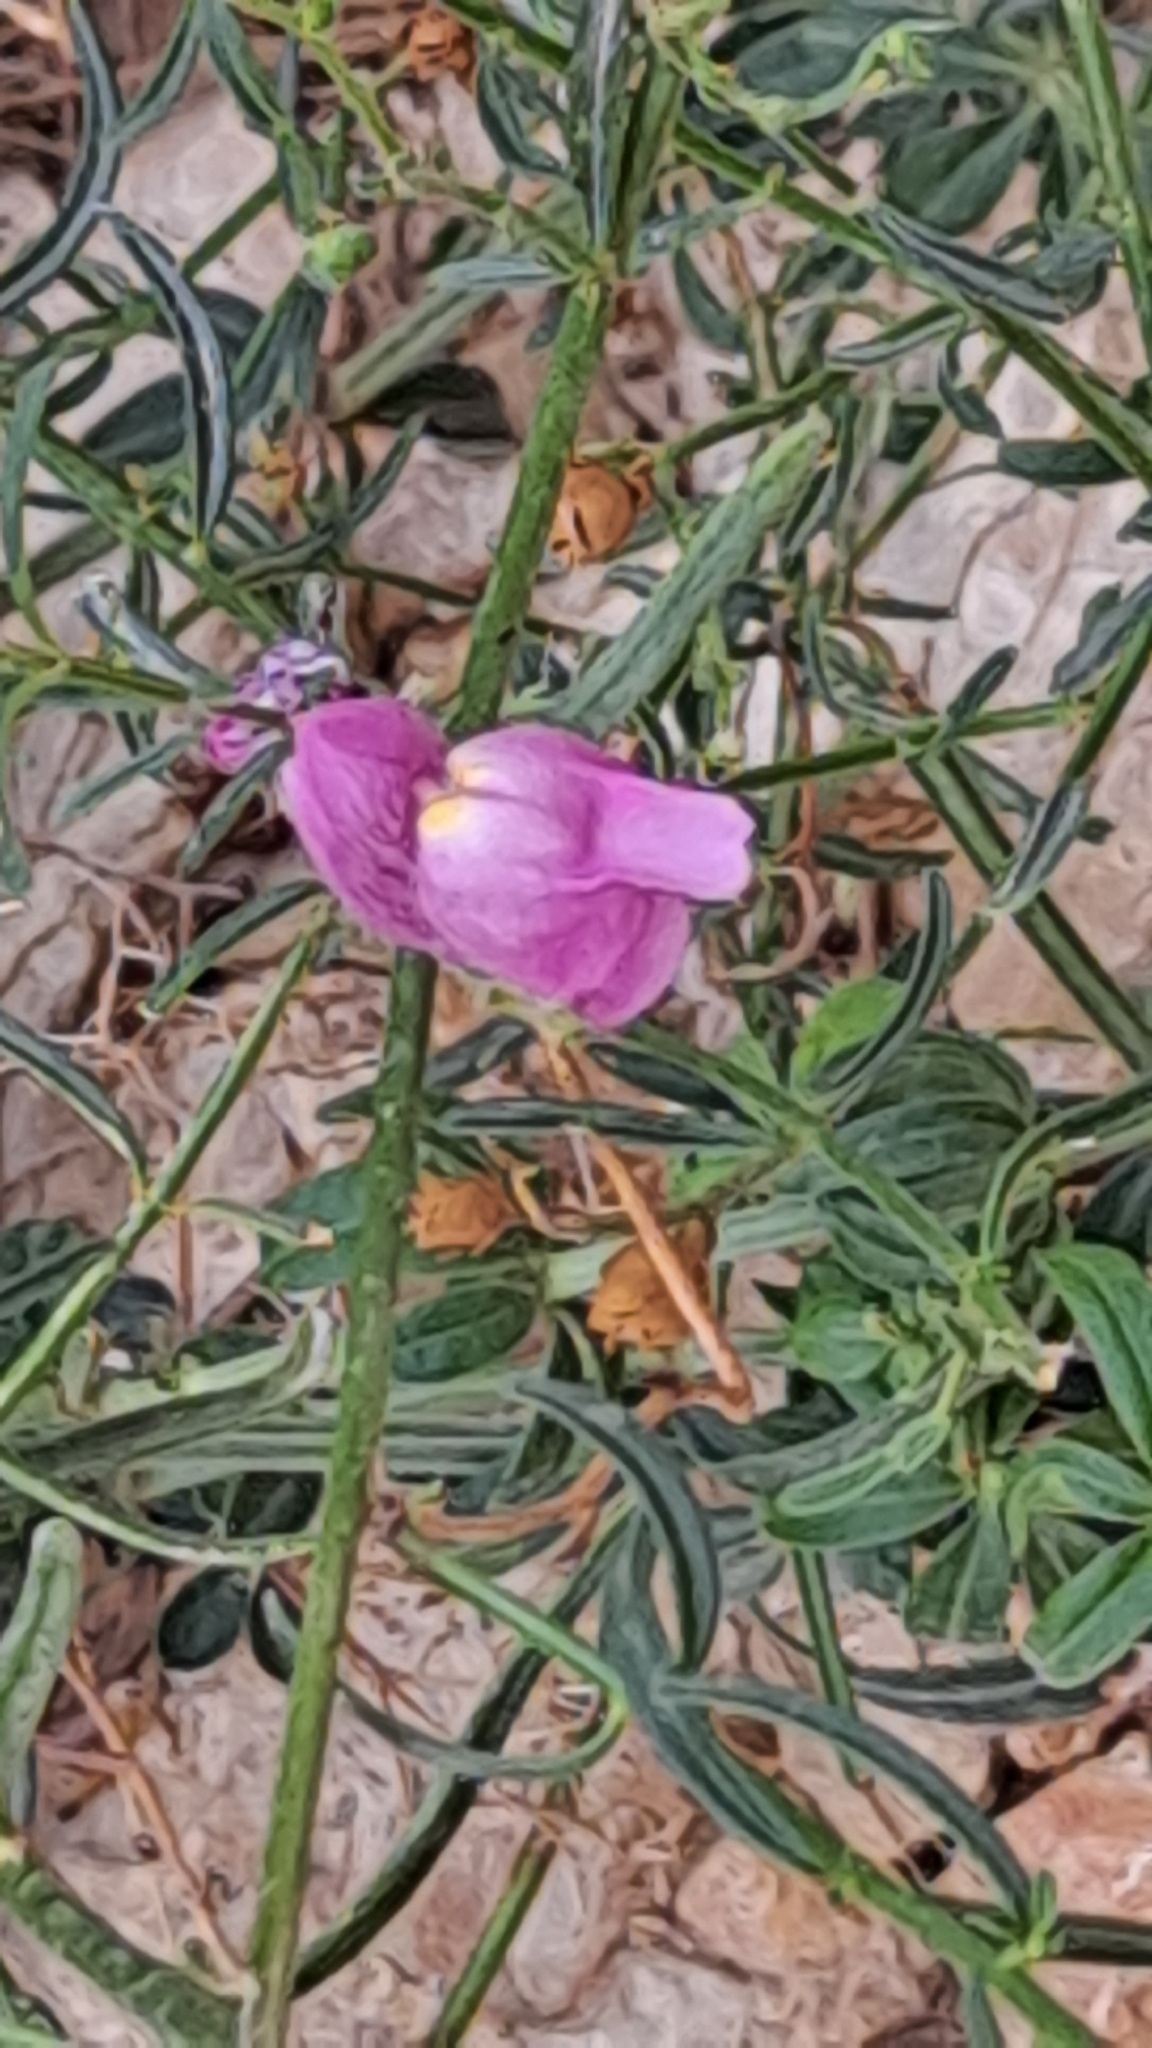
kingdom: Plantae
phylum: Tracheophyta
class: Magnoliopsida
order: Lamiales
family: Plantaginaceae
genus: Antirrhinum
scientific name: Antirrhinum litigiosum
